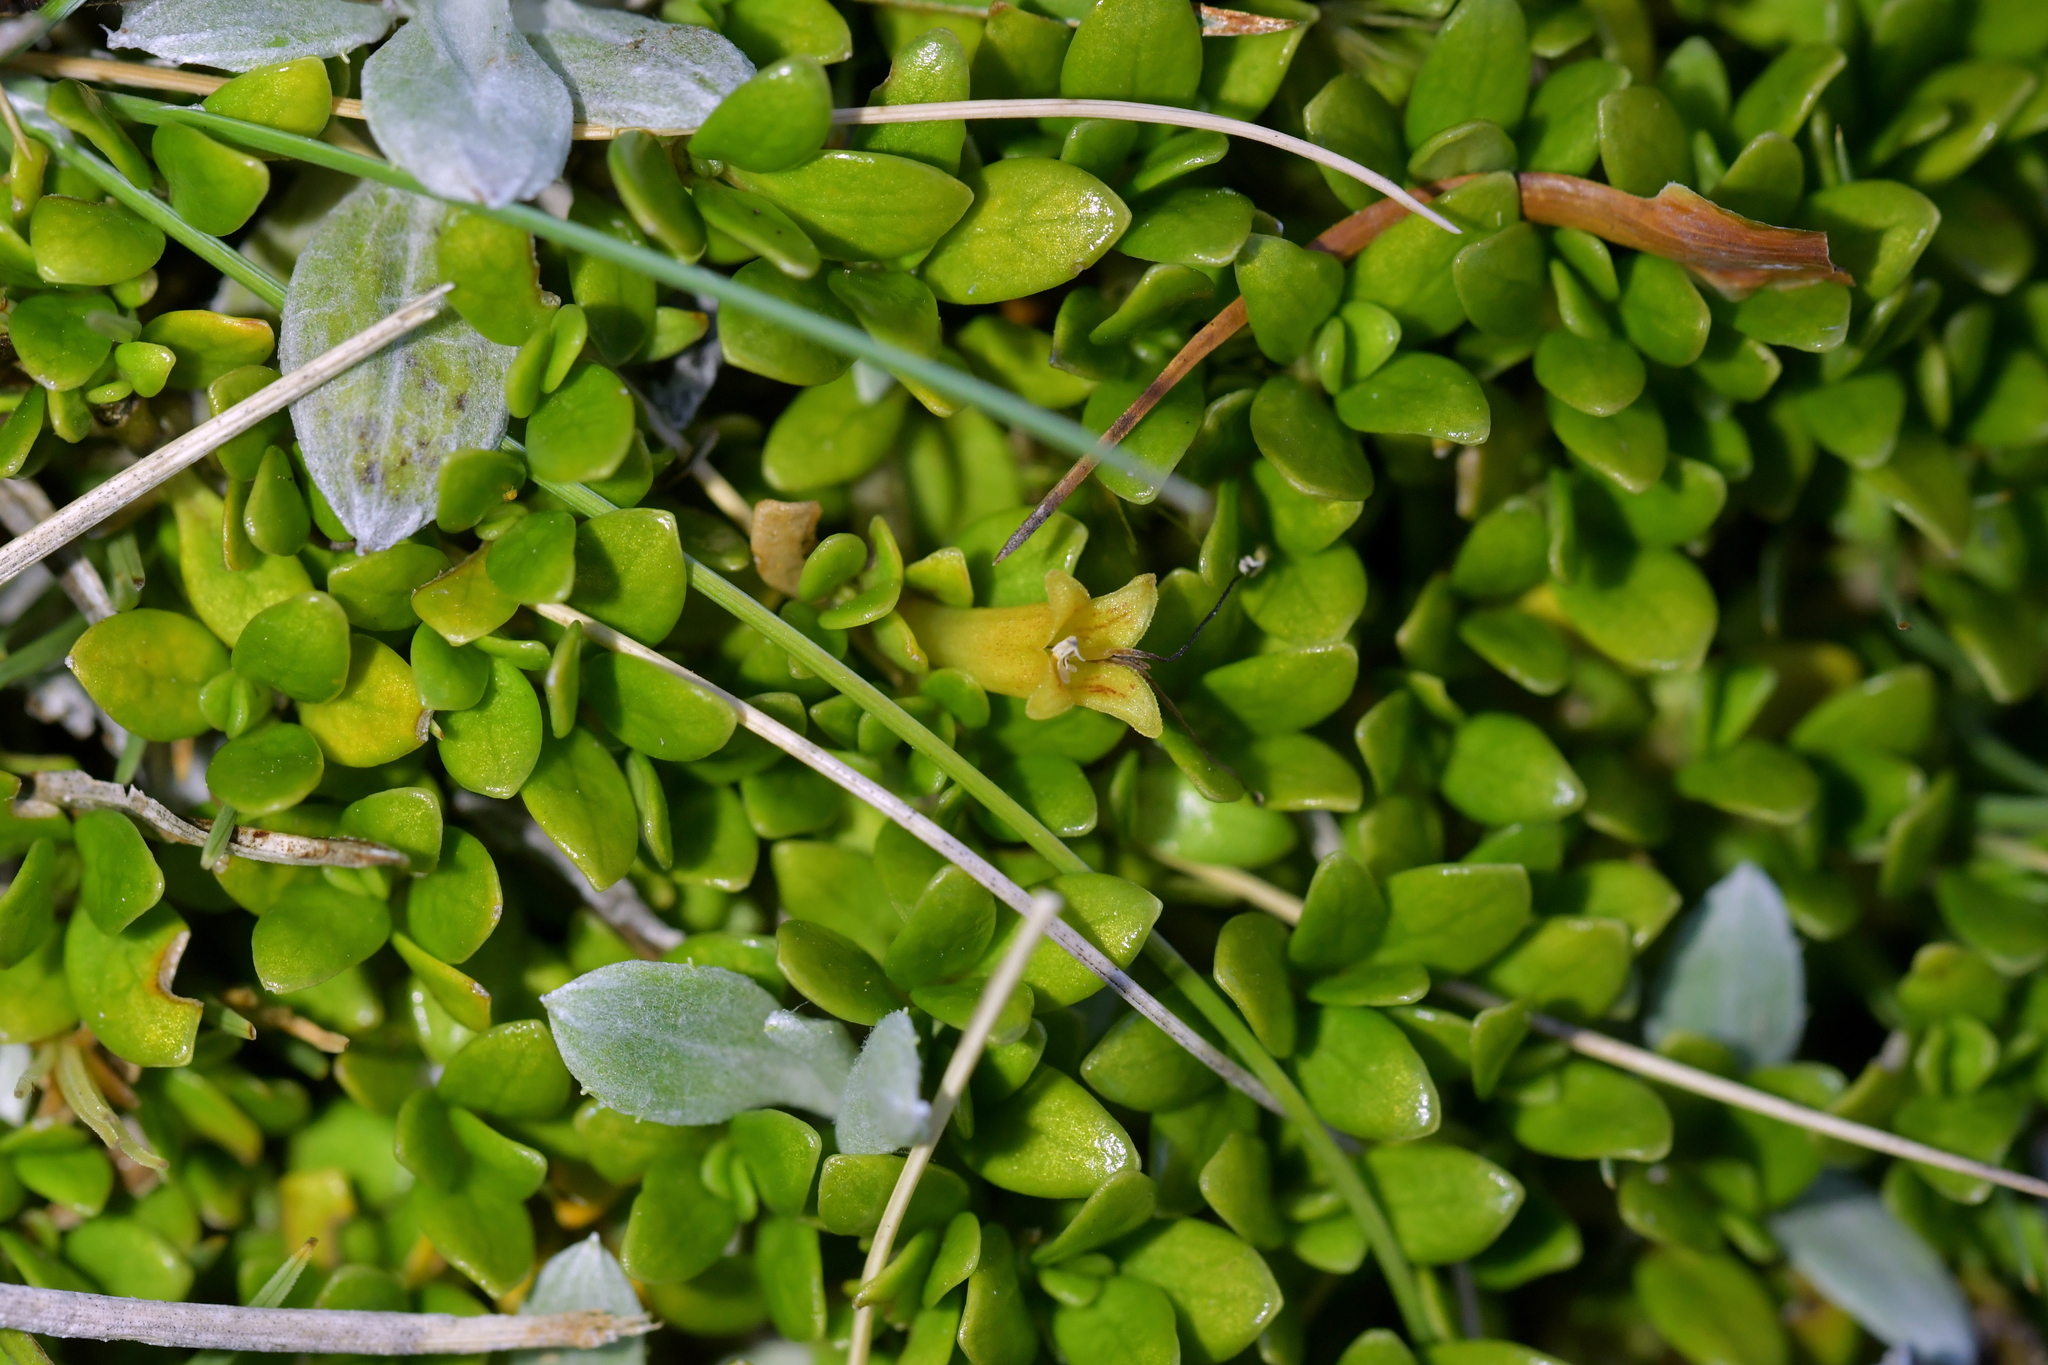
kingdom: Plantae
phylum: Tracheophyta
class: Magnoliopsida
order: Gentianales
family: Rubiaceae
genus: Coprosma
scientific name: Coprosma perpusilla
